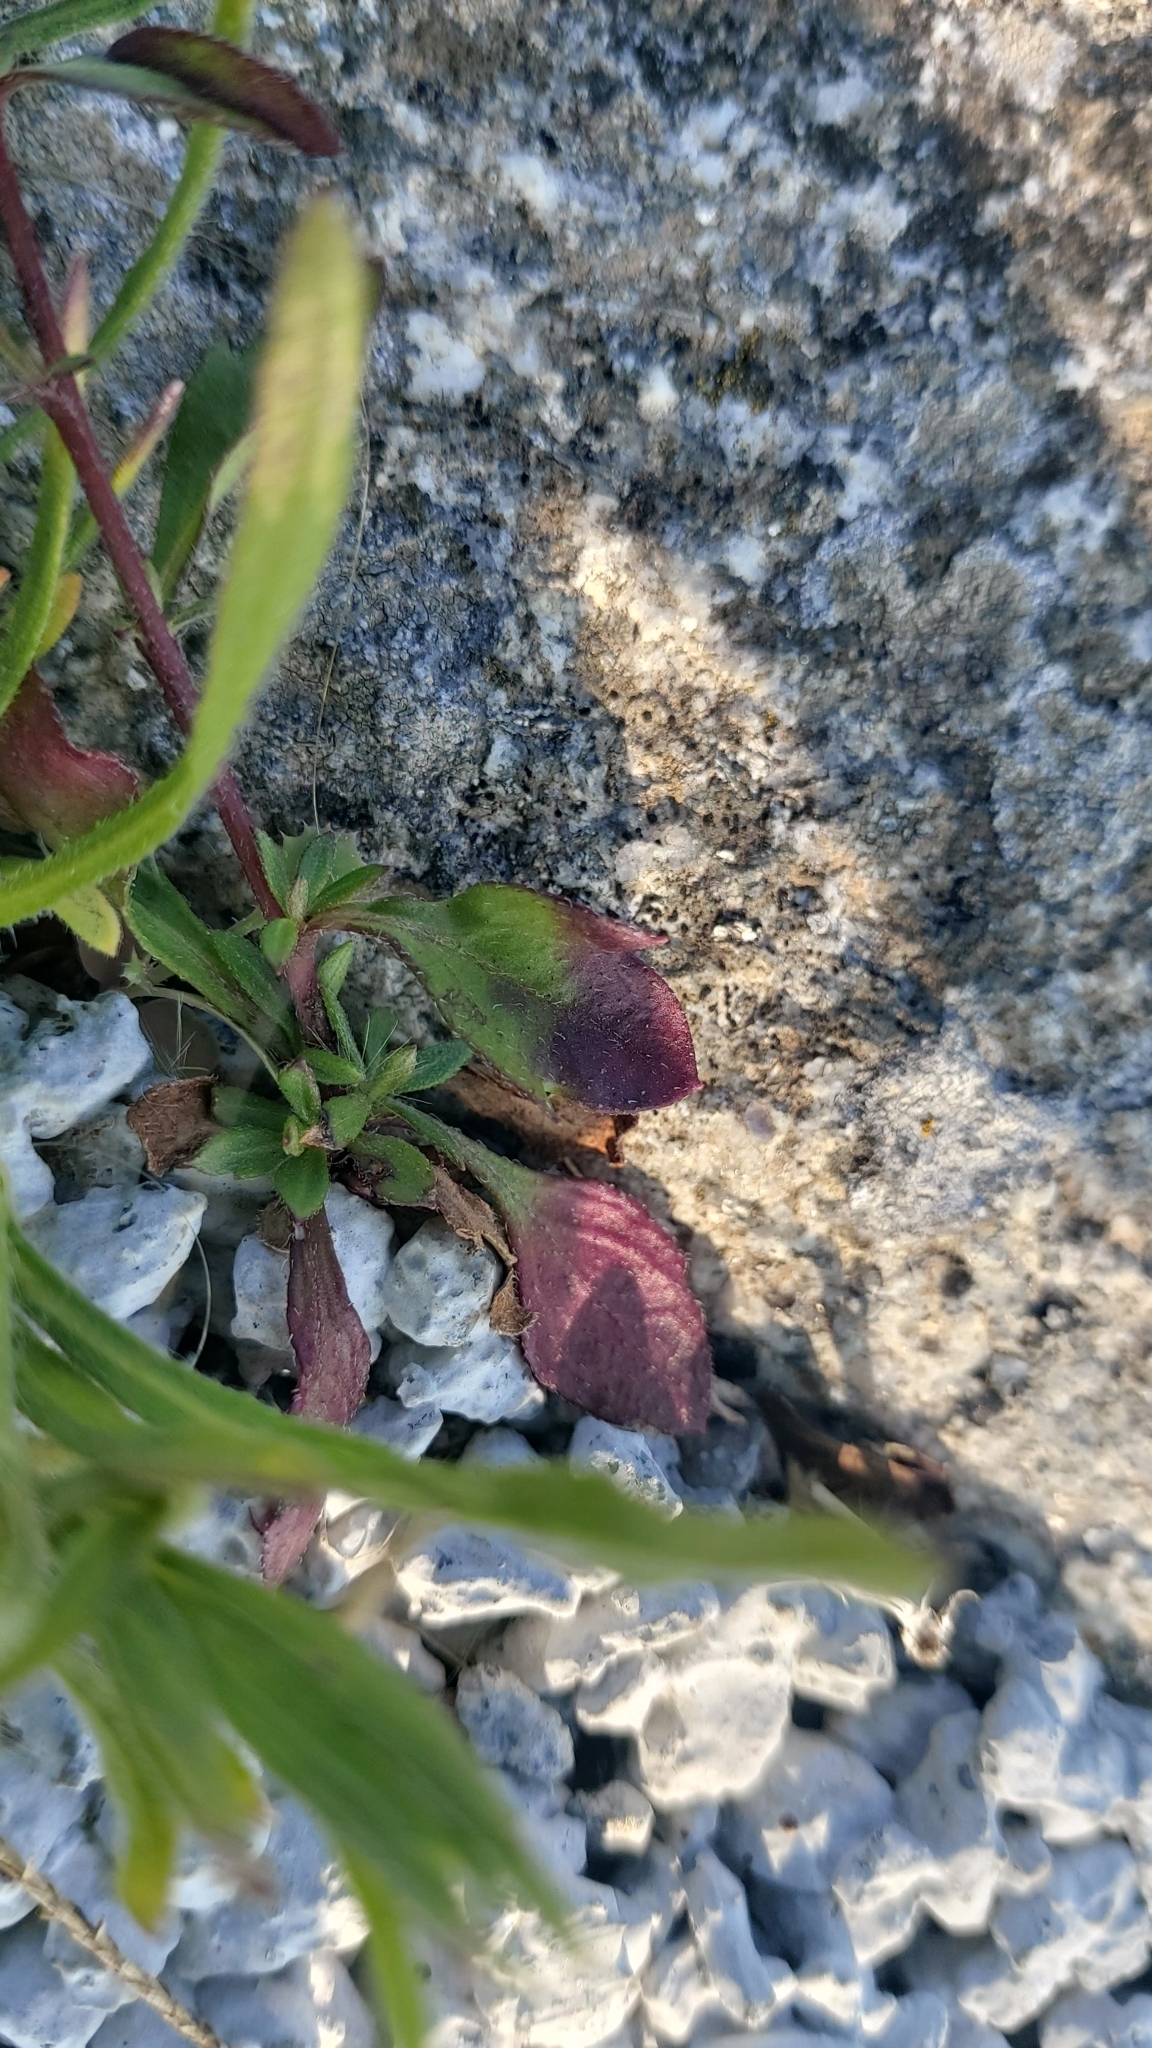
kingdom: Plantae
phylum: Tracheophyta
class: Magnoliopsida
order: Asterales
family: Asteraceae
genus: Erigeron
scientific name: Erigeron karvinskianus
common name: Mexican fleabane
